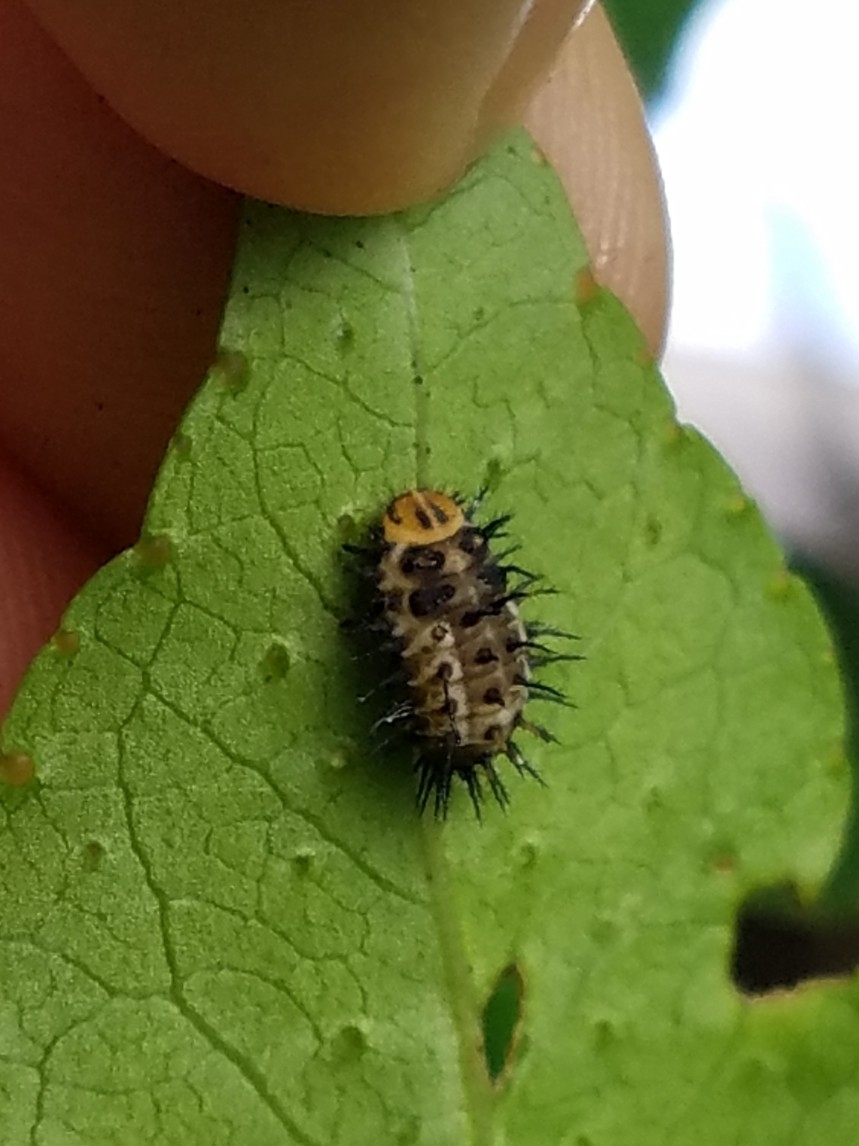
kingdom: Animalia
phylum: Arthropoda
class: Insecta
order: Coleoptera
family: Coccinellidae
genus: Curinus
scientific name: Curinus coeruleus
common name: Ladybird beetle
